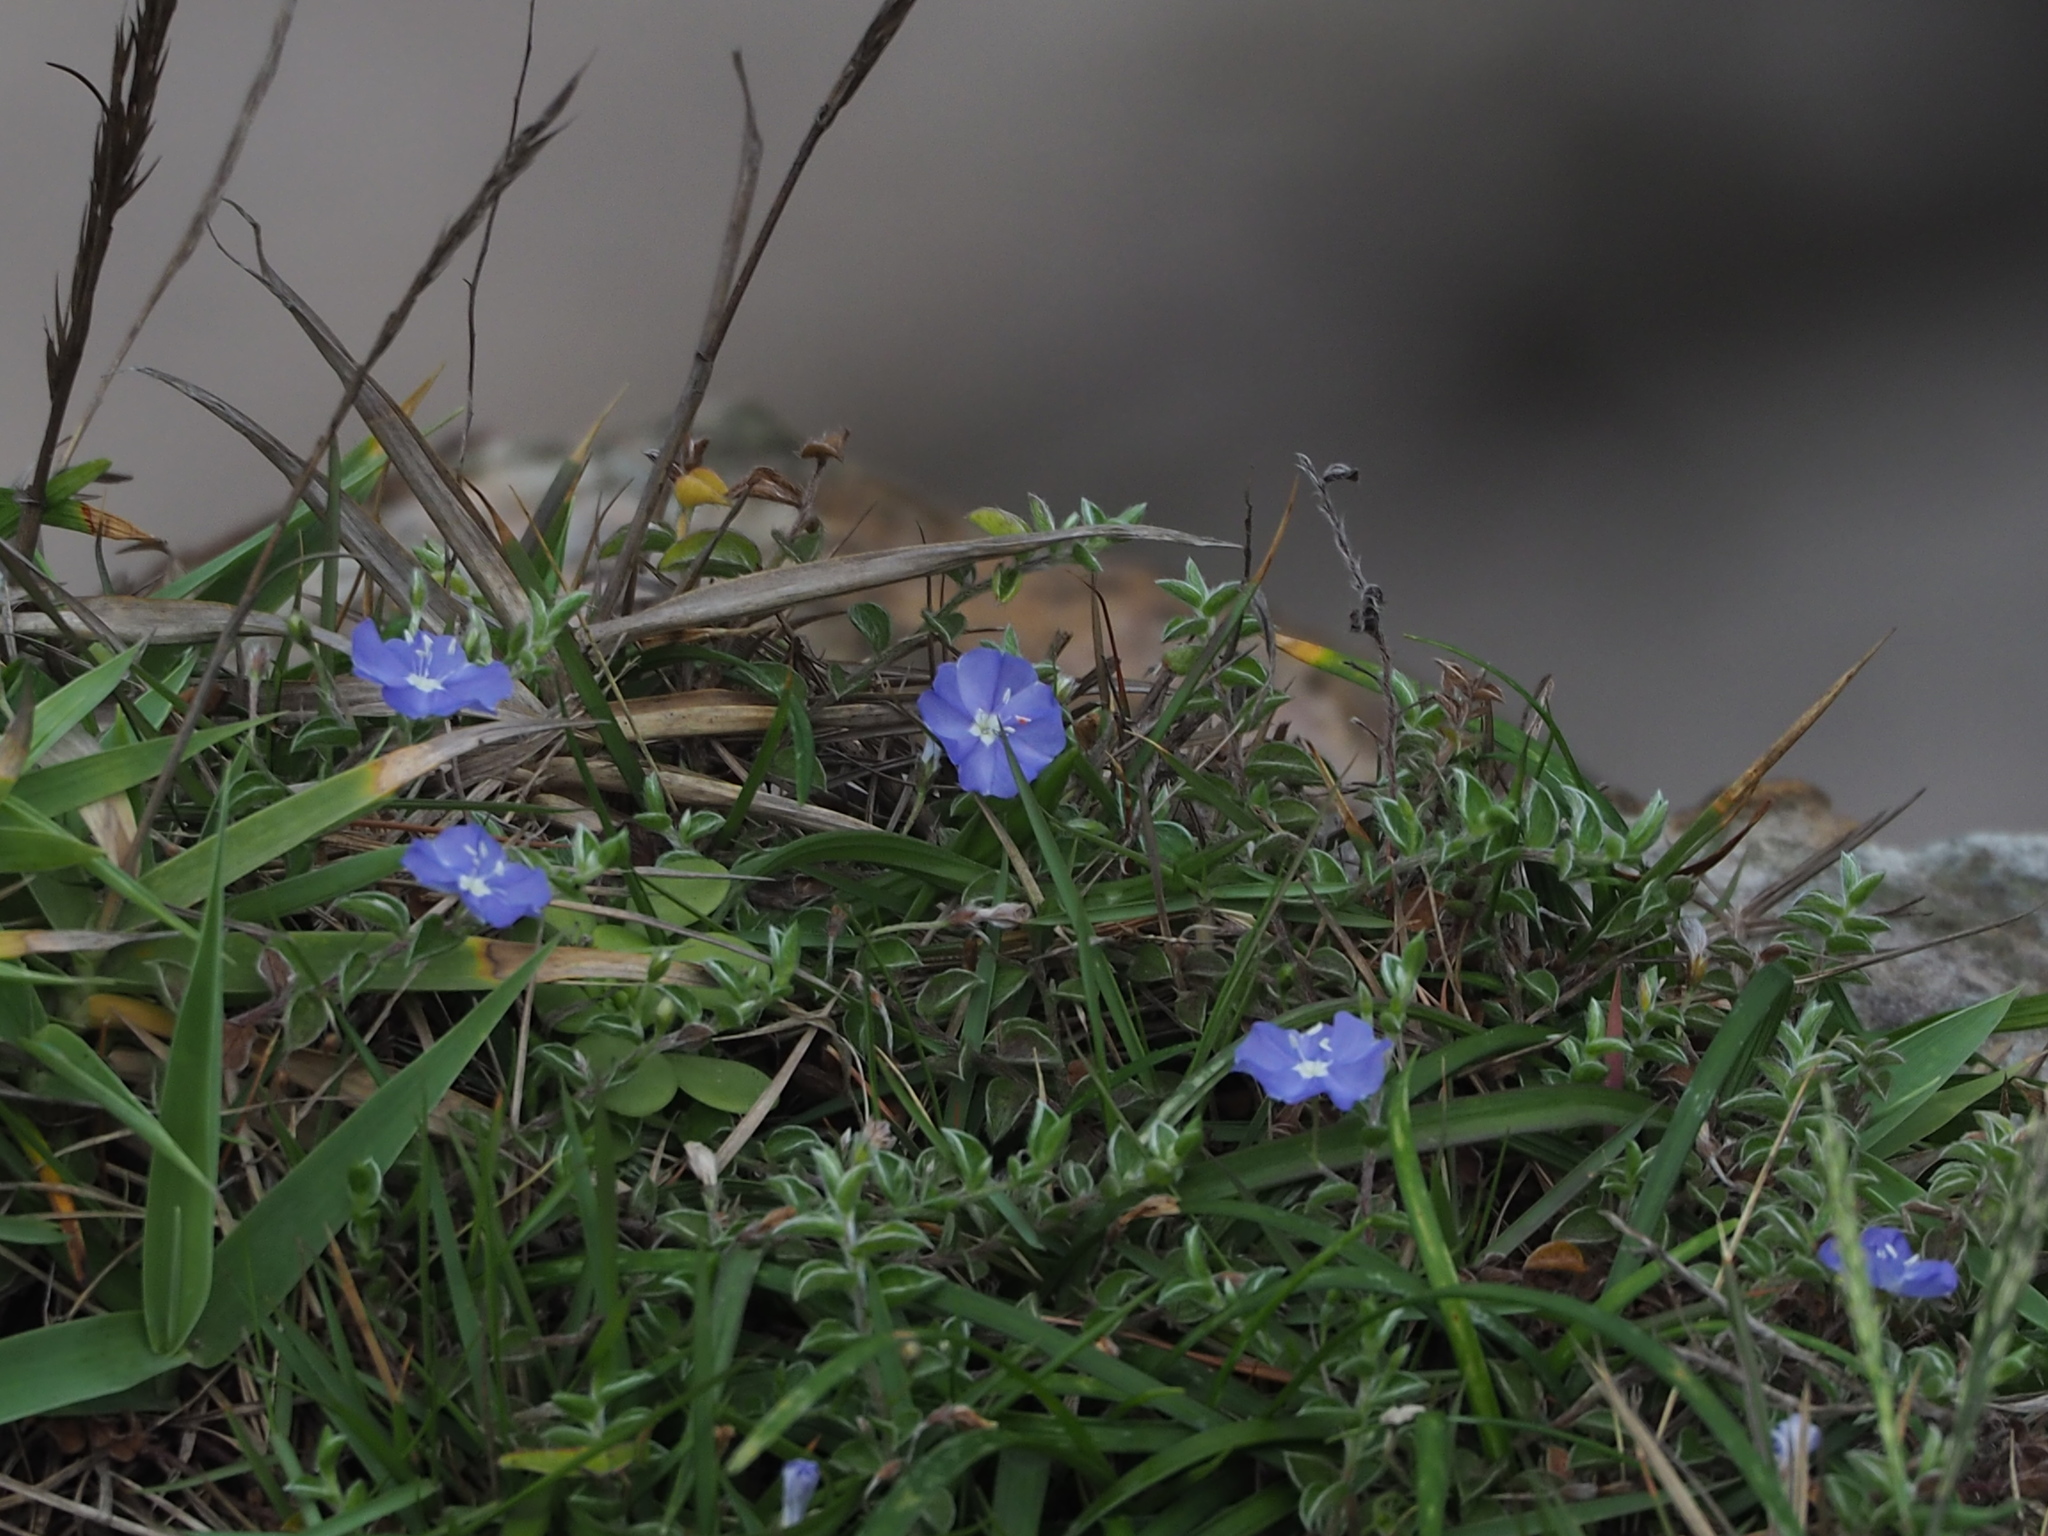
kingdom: Plantae
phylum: Tracheophyta
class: Magnoliopsida
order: Solanales
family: Convolvulaceae
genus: Evolvulus
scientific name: Evolvulus alsinoides
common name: Slender dwarf morning-glory
